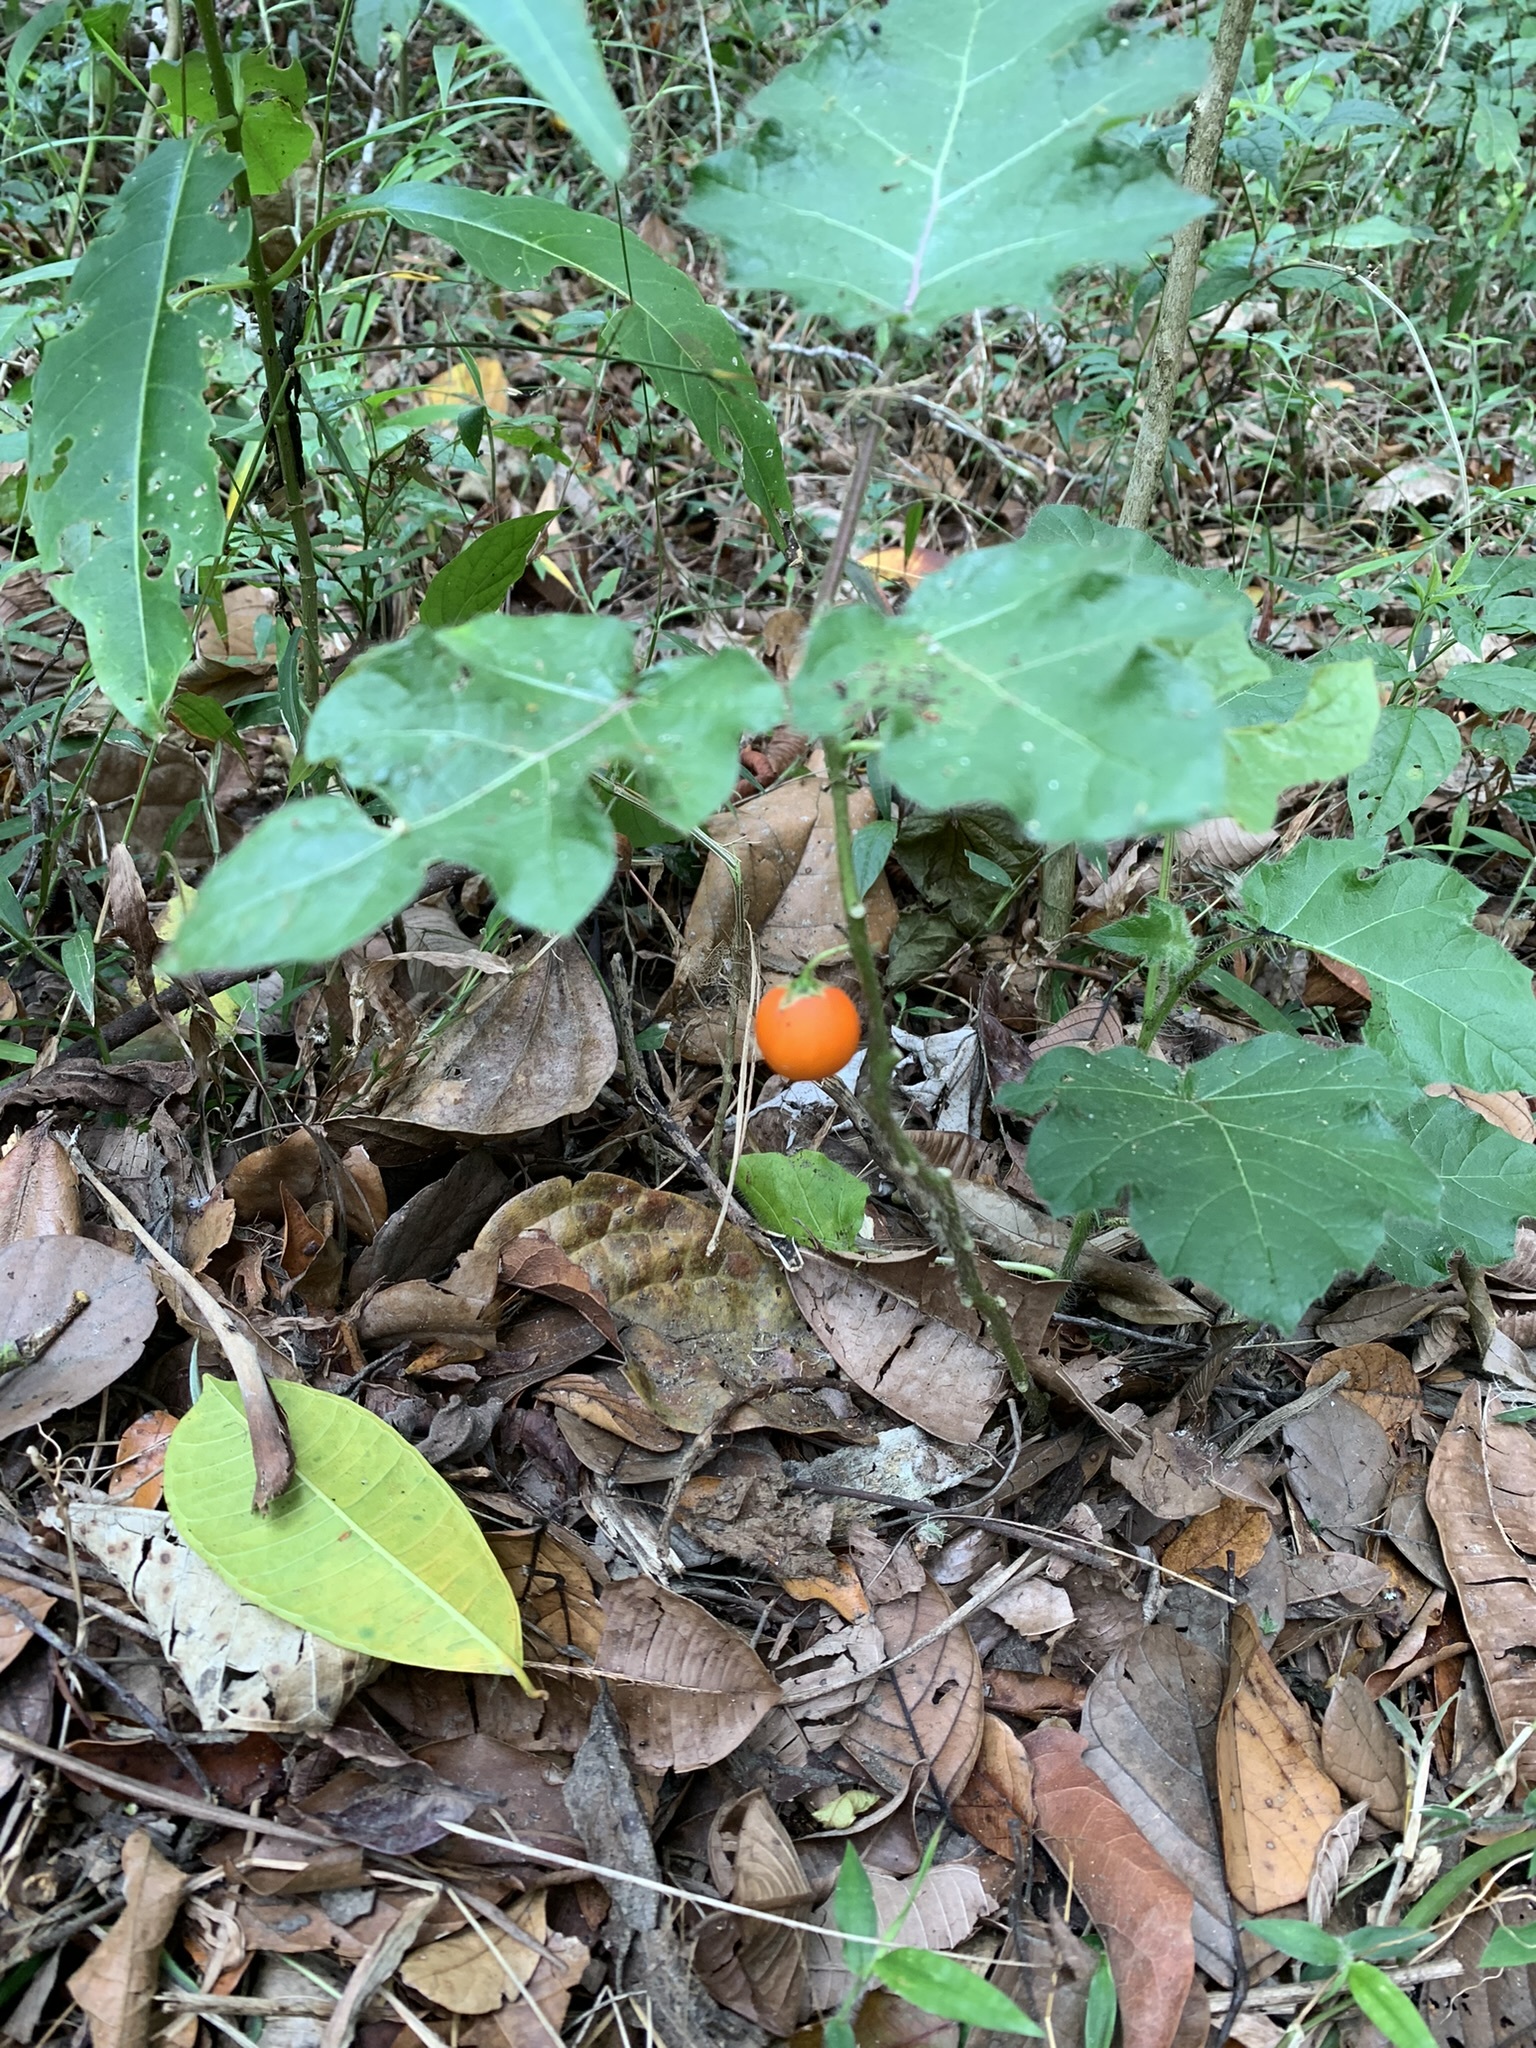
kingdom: Plantae
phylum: Tracheophyta
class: Magnoliopsida
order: Solanales
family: Solanaceae
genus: Solanum
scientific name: Solanum capsicoides
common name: Cockroach berry
